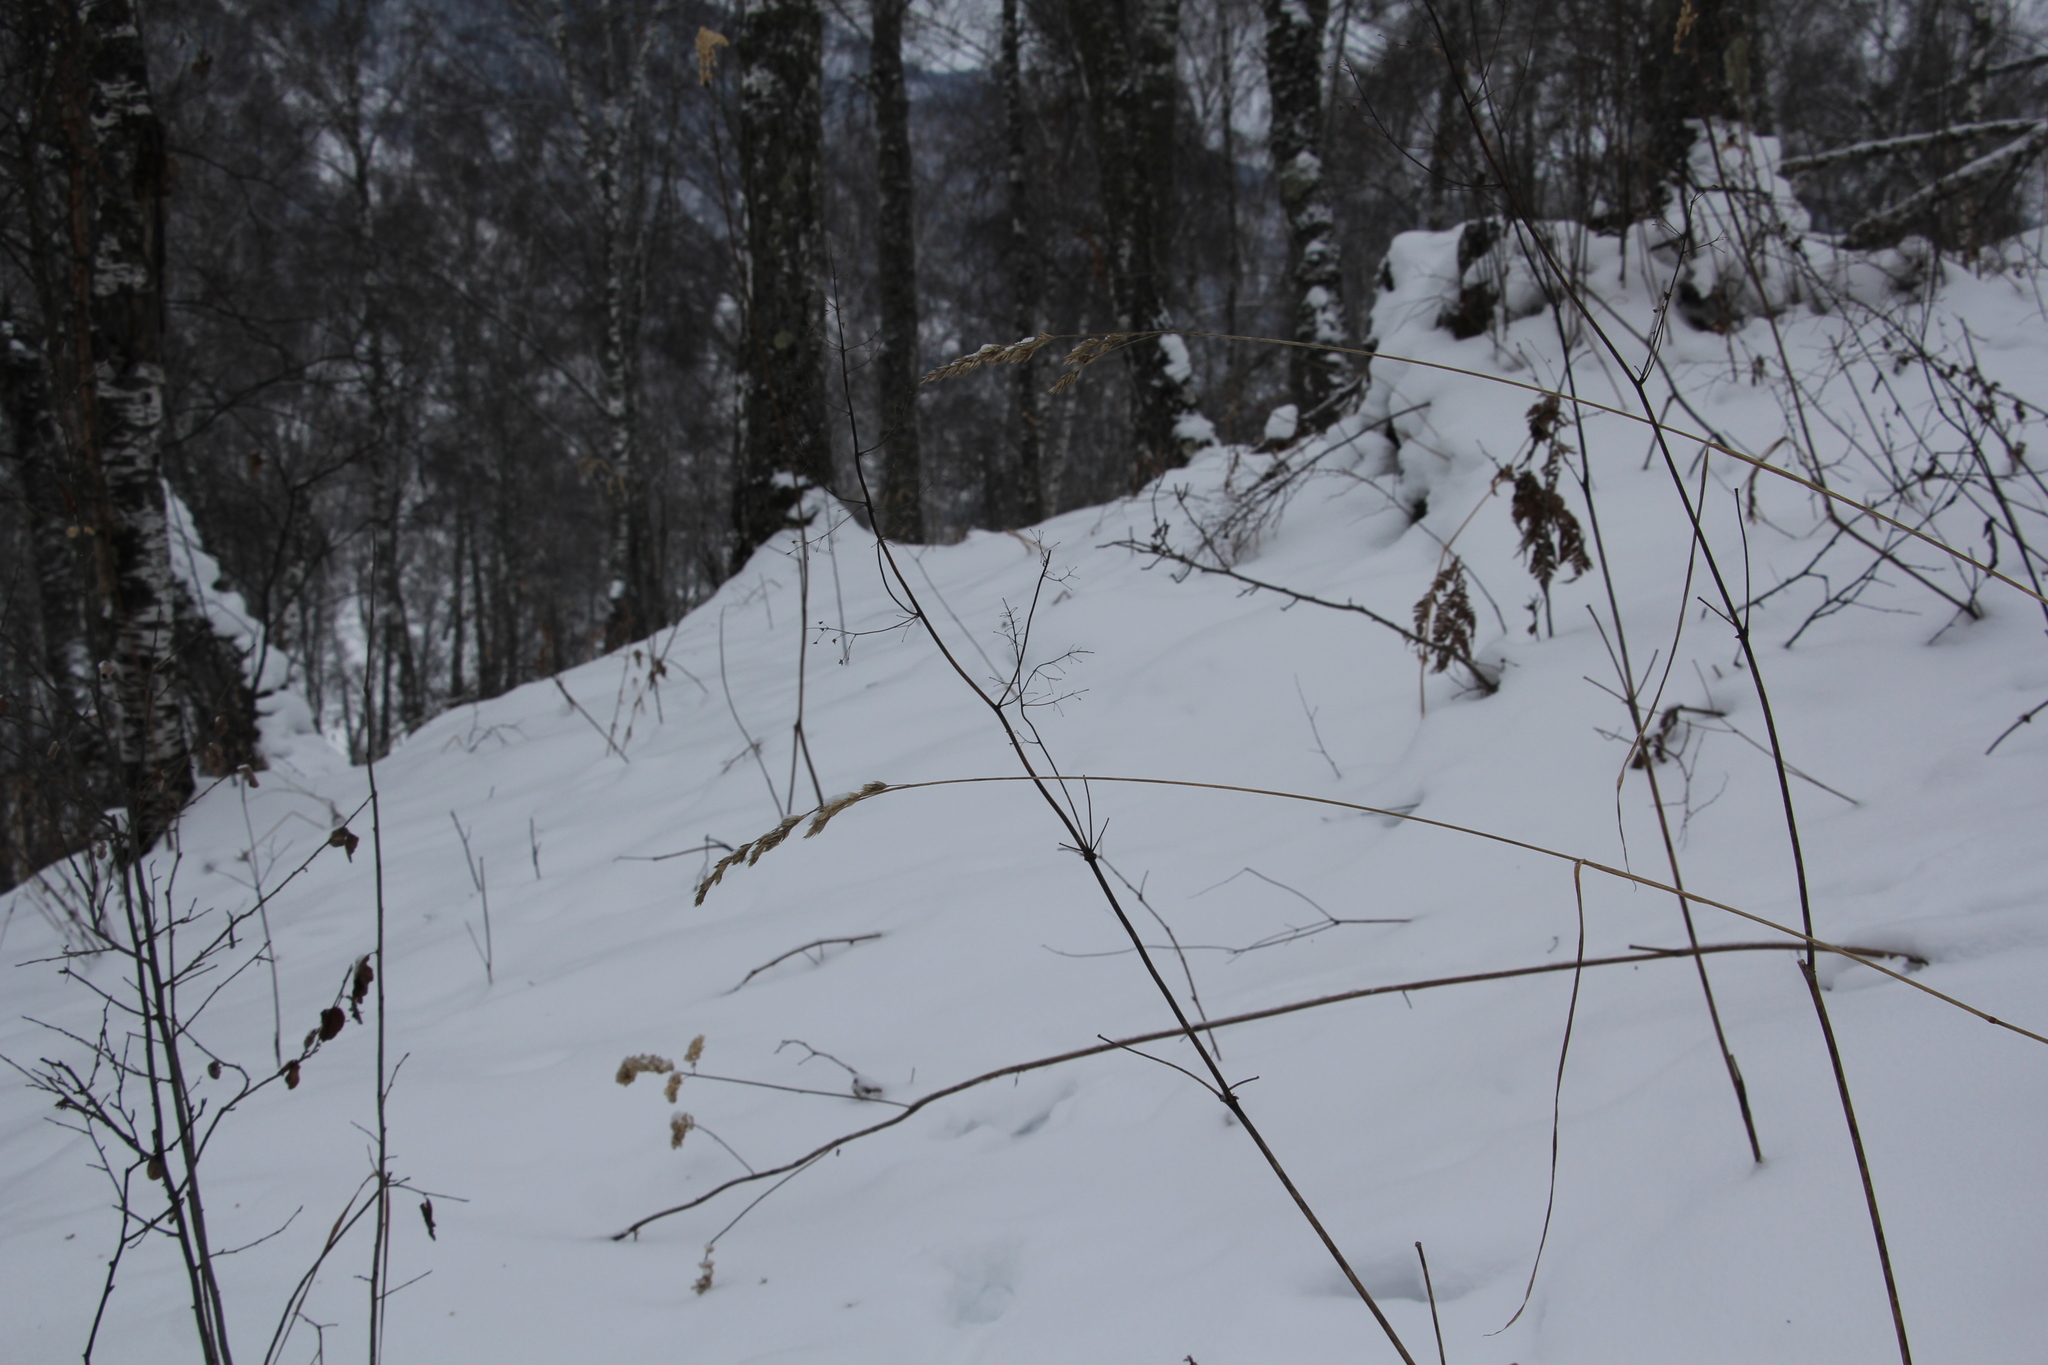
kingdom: Plantae
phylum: Tracheophyta
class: Liliopsida
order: Poales
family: Poaceae
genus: Dactylis
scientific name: Dactylis glomerata
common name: Orchardgrass
